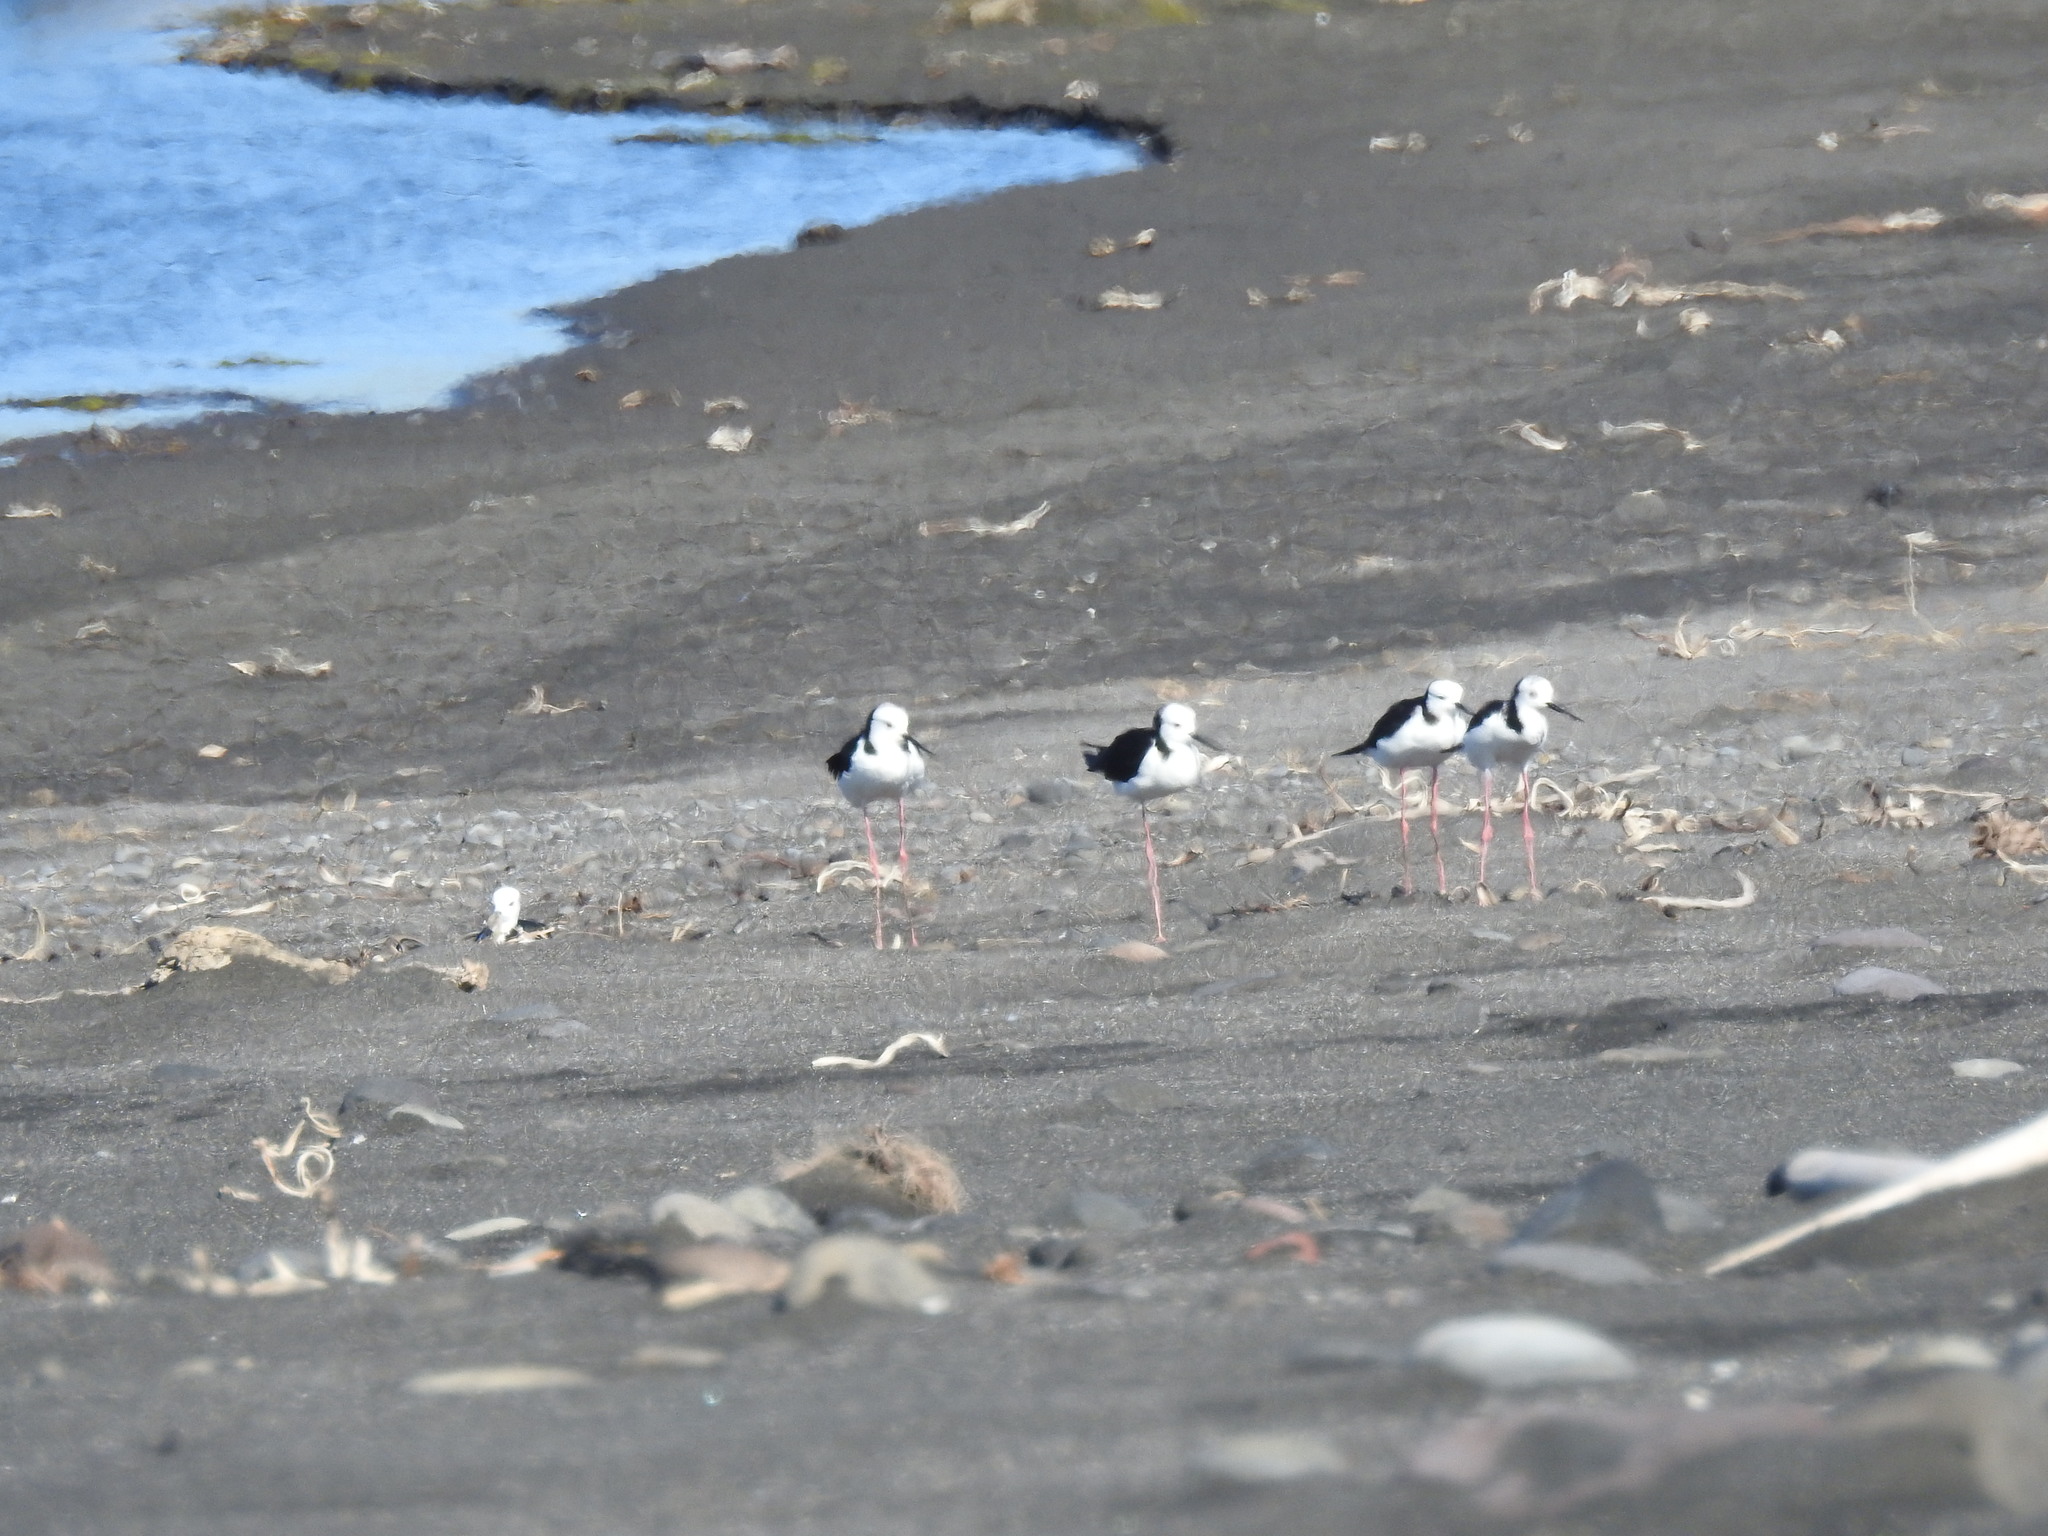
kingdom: Animalia
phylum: Chordata
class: Aves
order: Charadriiformes
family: Recurvirostridae
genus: Himantopus
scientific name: Himantopus leucocephalus
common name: White-headed stilt
